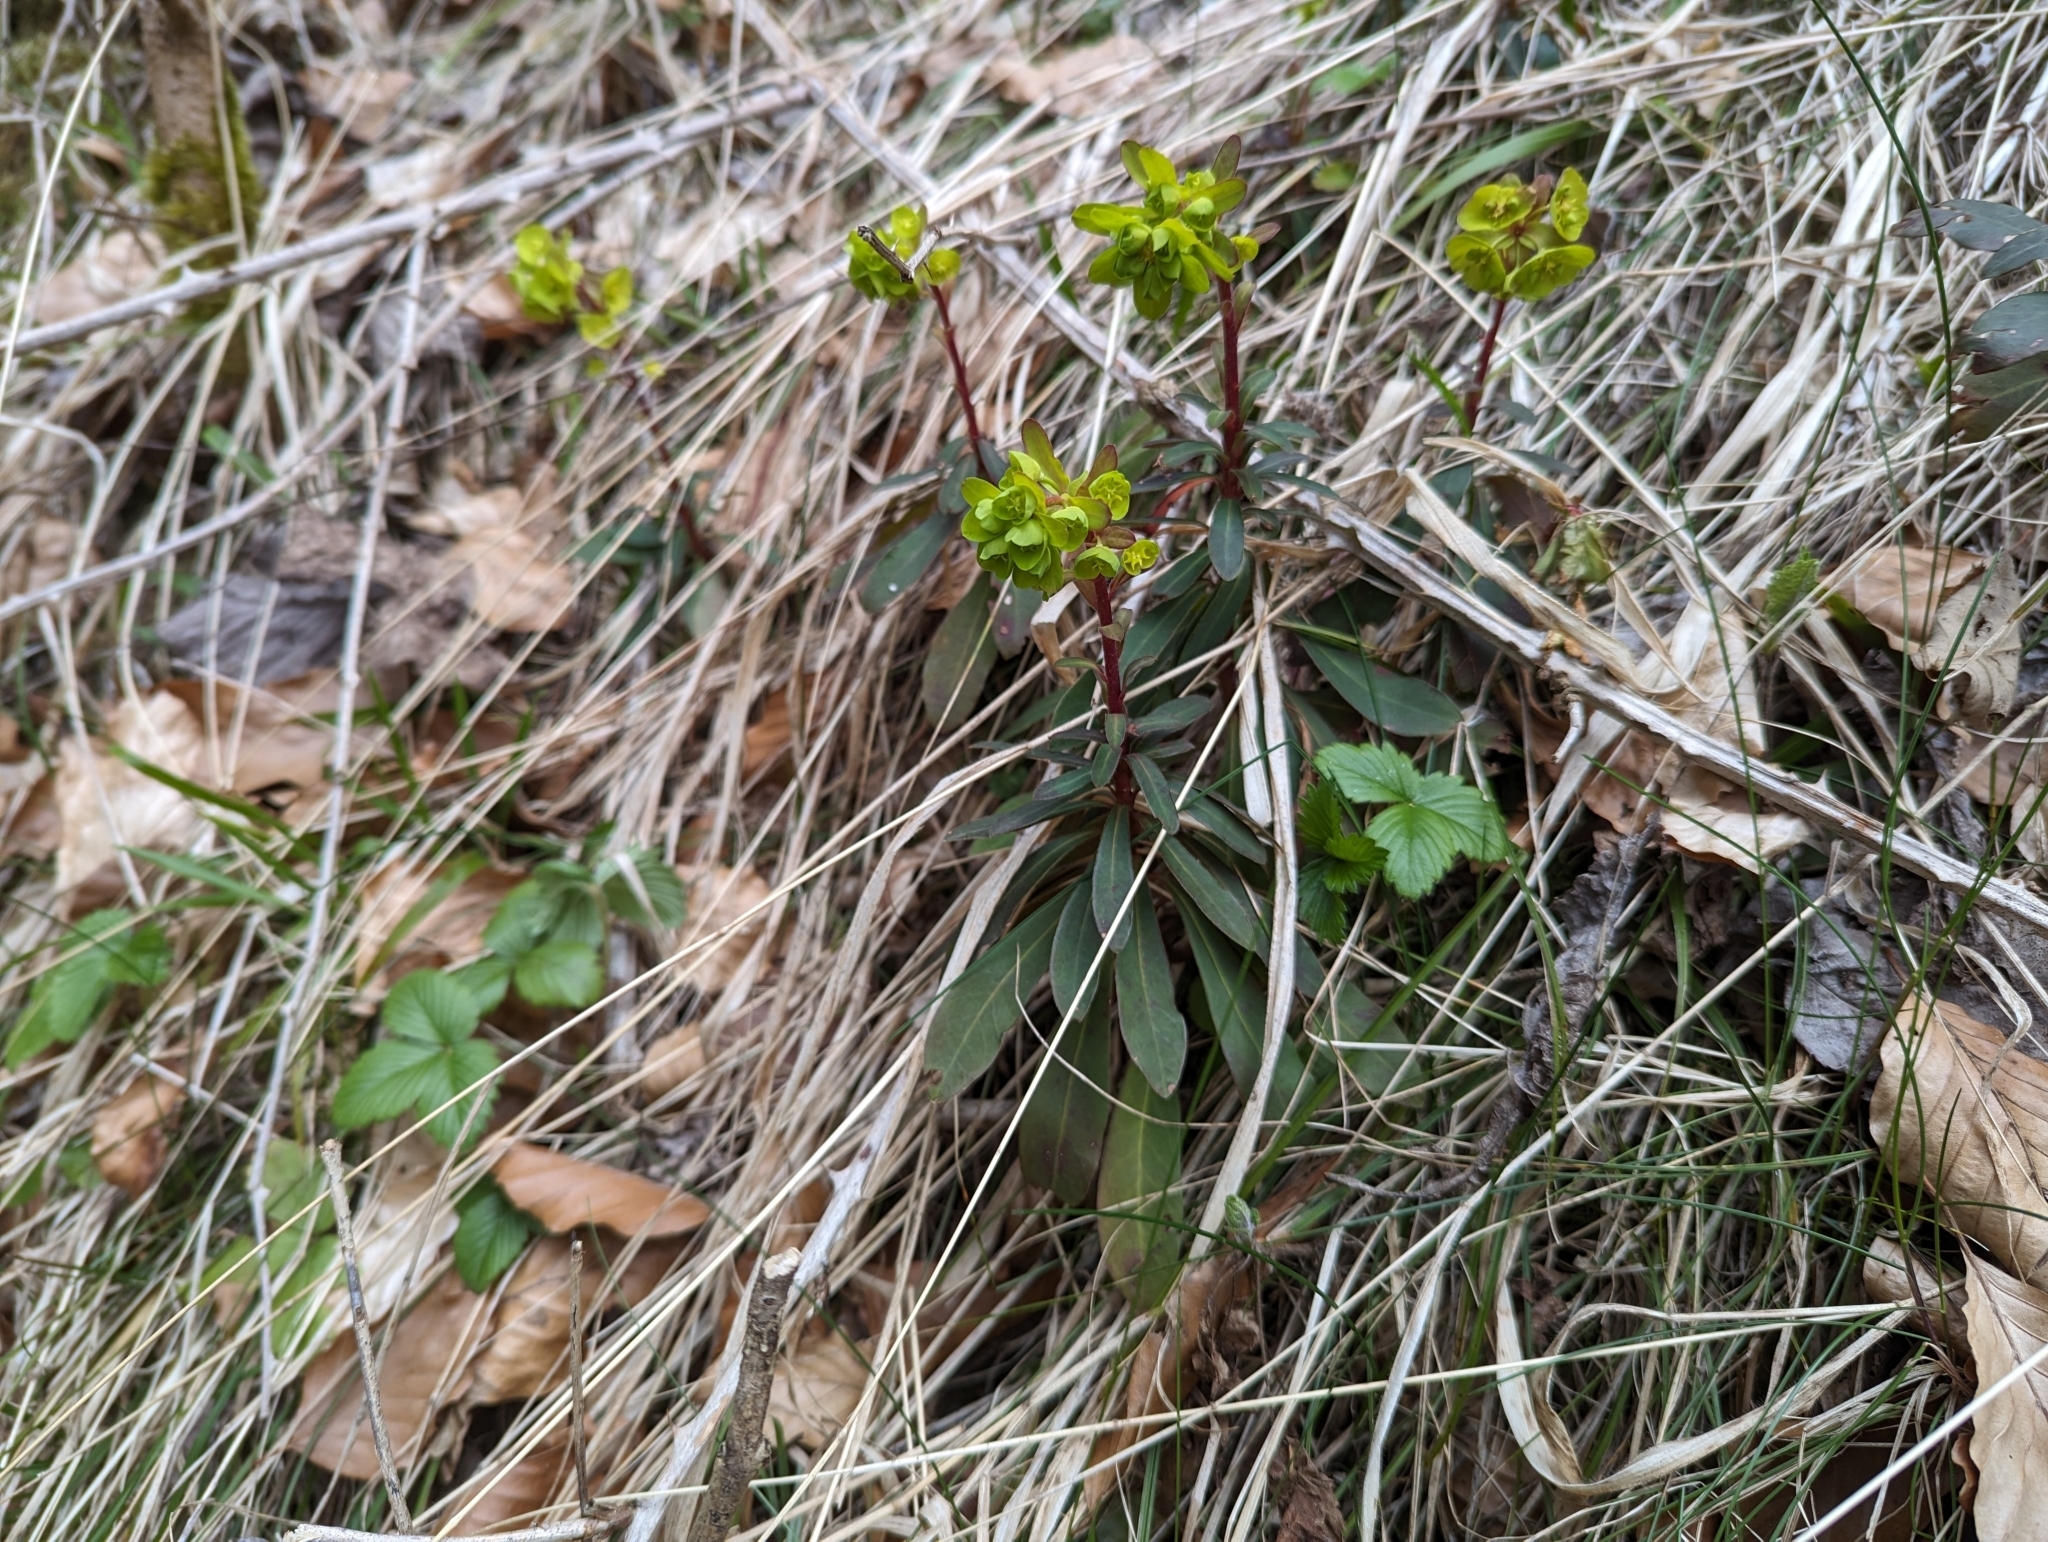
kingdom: Plantae
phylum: Tracheophyta
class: Magnoliopsida
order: Malpighiales
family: Euphorbiaceae
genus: Euphorbia
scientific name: Euphorbia amygdaloides
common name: Wood spurge
